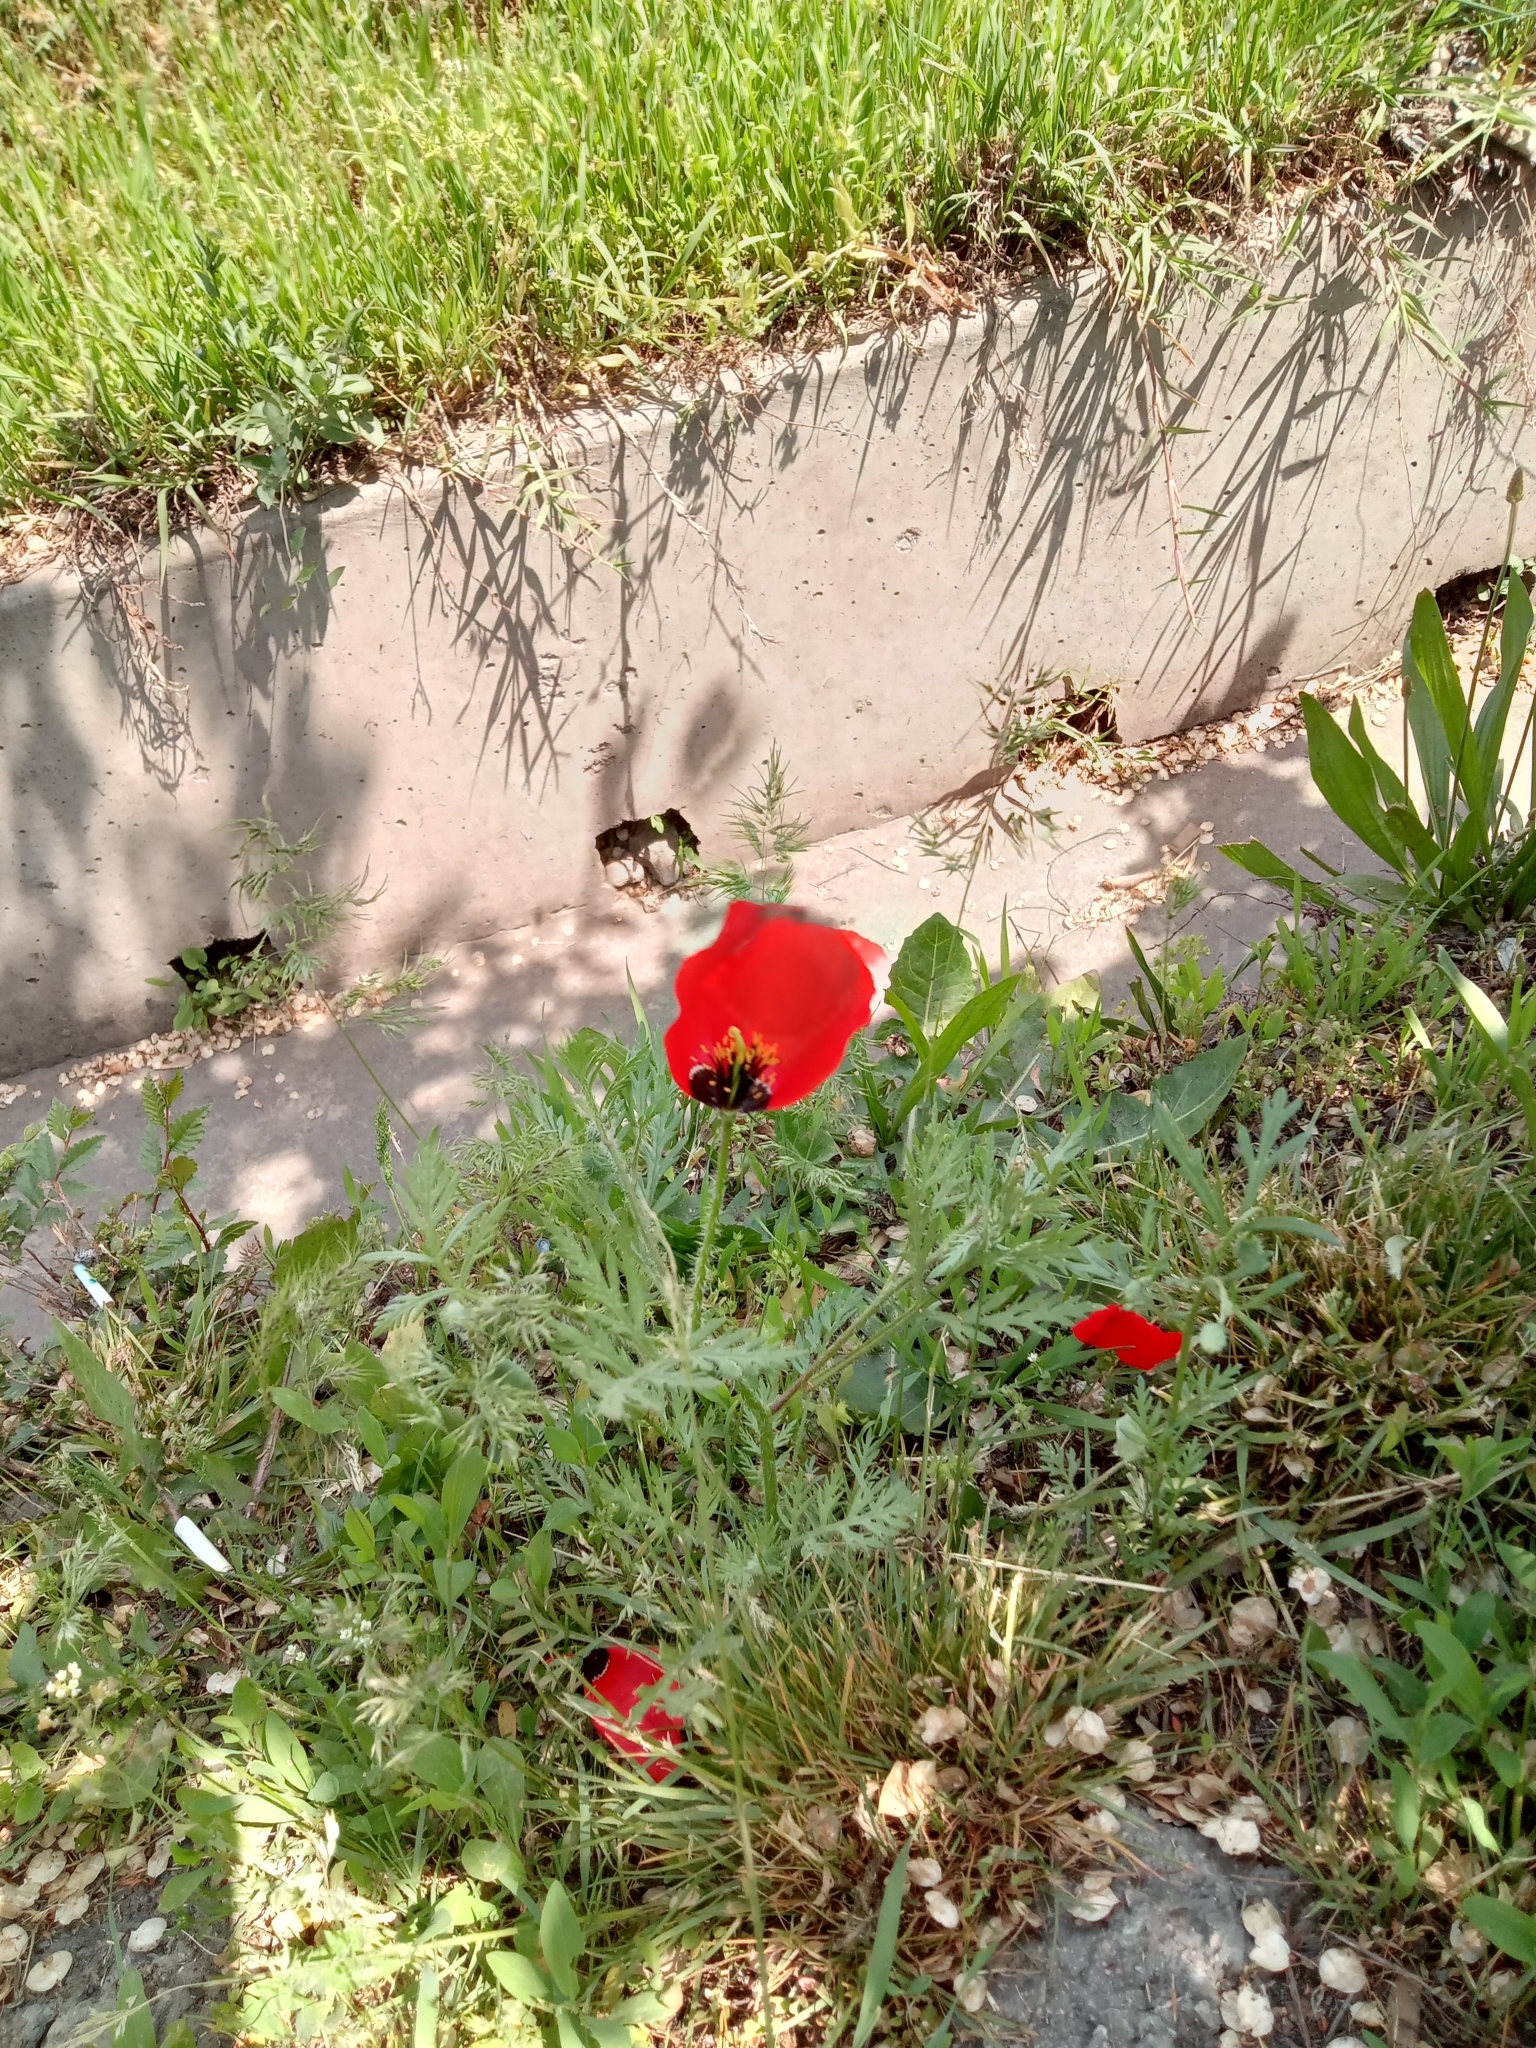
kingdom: Plantae
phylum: Tracheophyta
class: Magnoliopsida
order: Ranunculales
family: Papaveraceae
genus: Roemeria
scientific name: Roemeria refracta
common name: Spotted asian poppy
